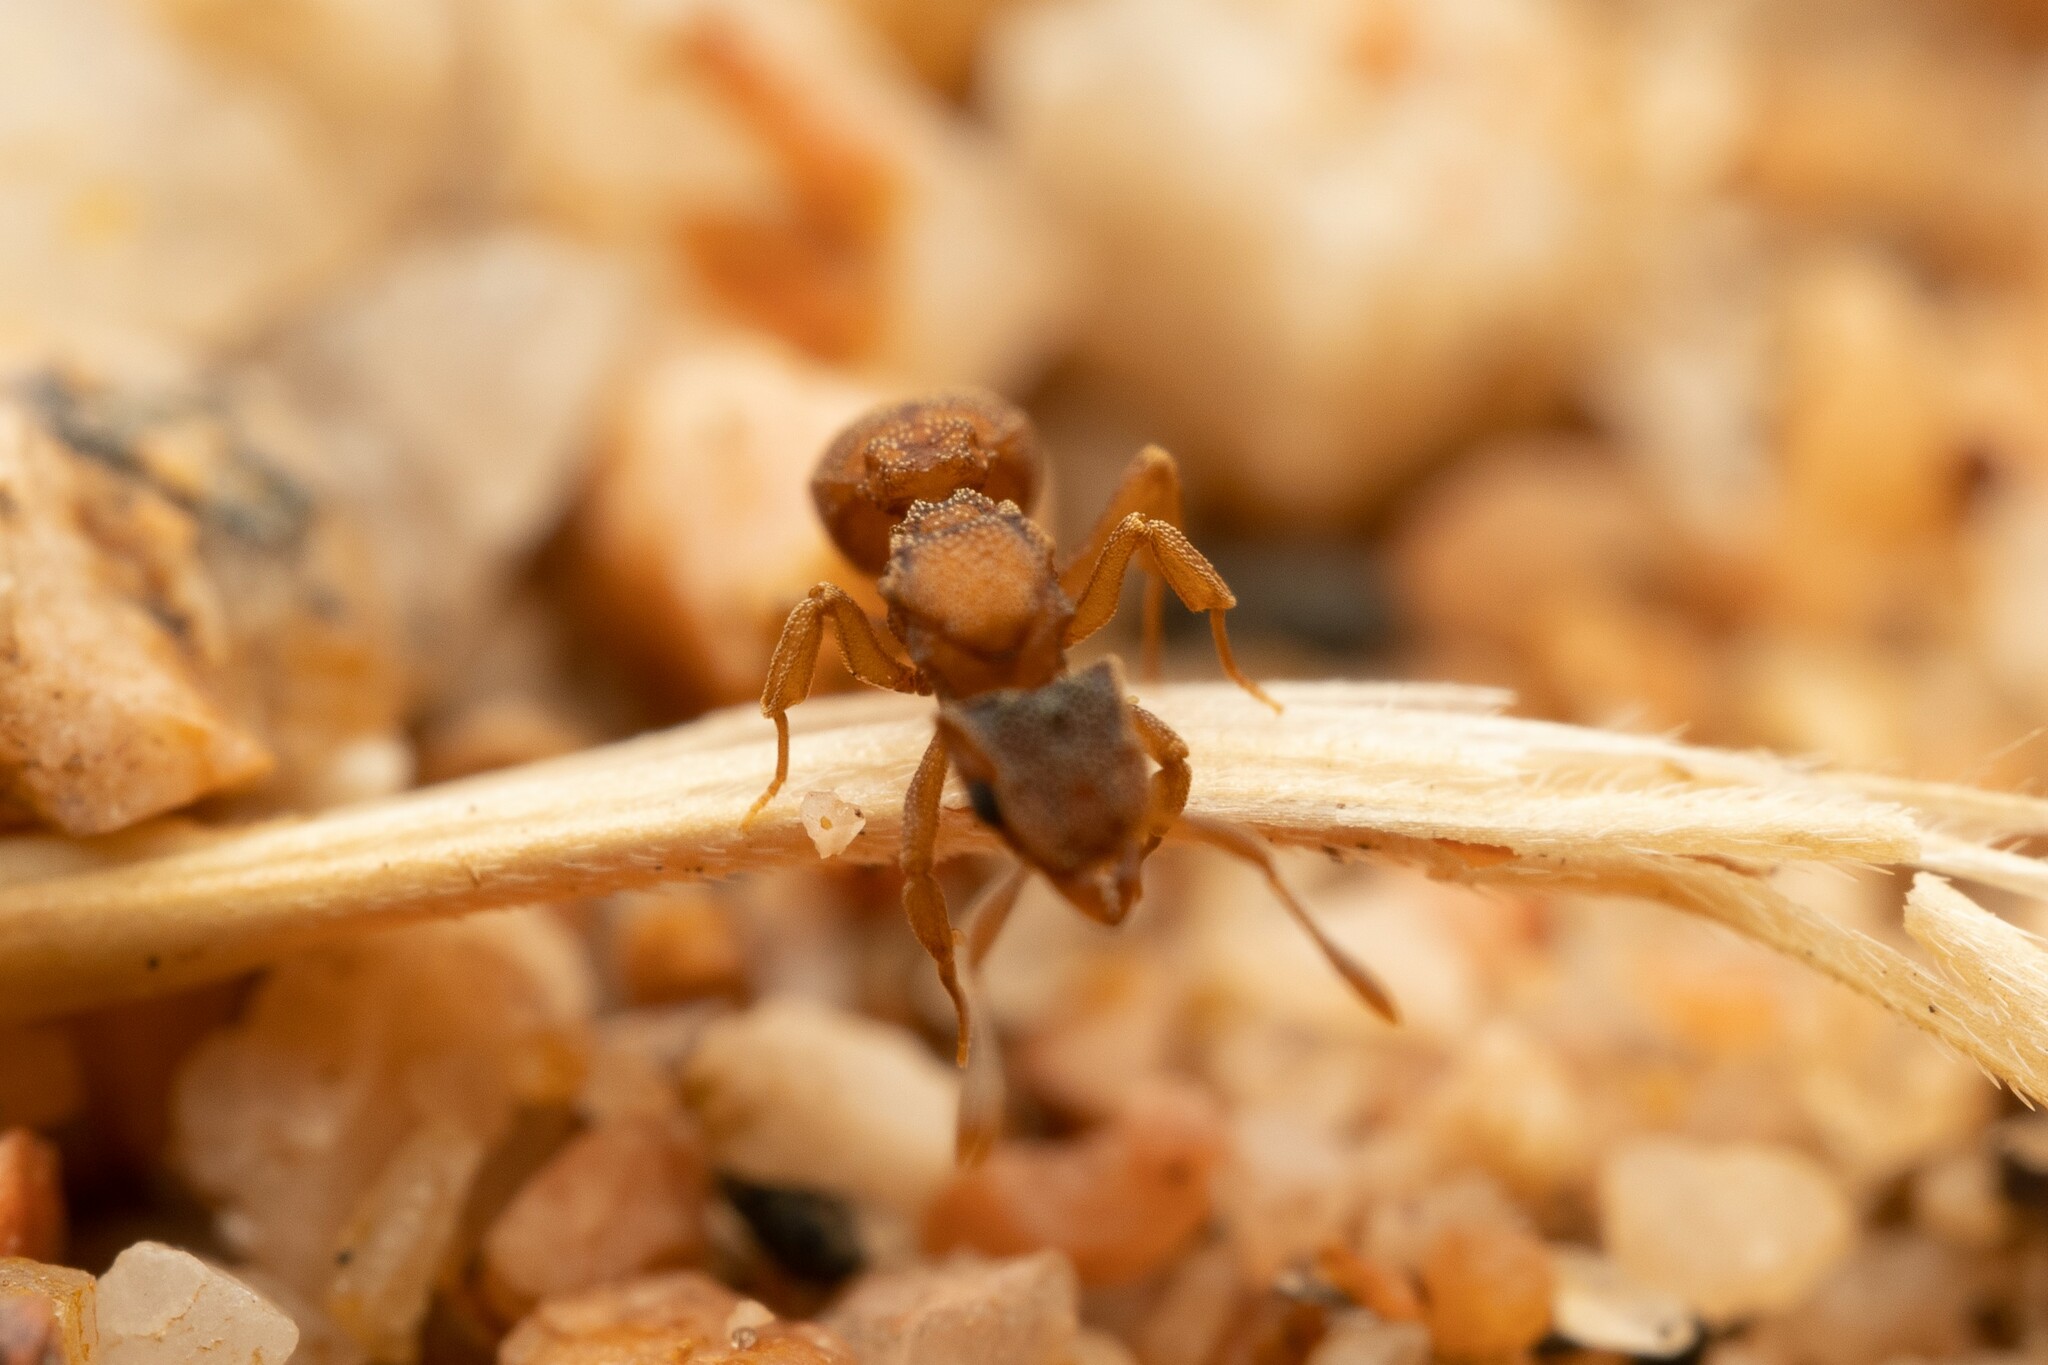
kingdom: Animalia
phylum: Arthropoda
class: Insecta
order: Hymenoptera
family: Formicidae
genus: Cyphomyrmex
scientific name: Cyphomyrmex wheeleri
